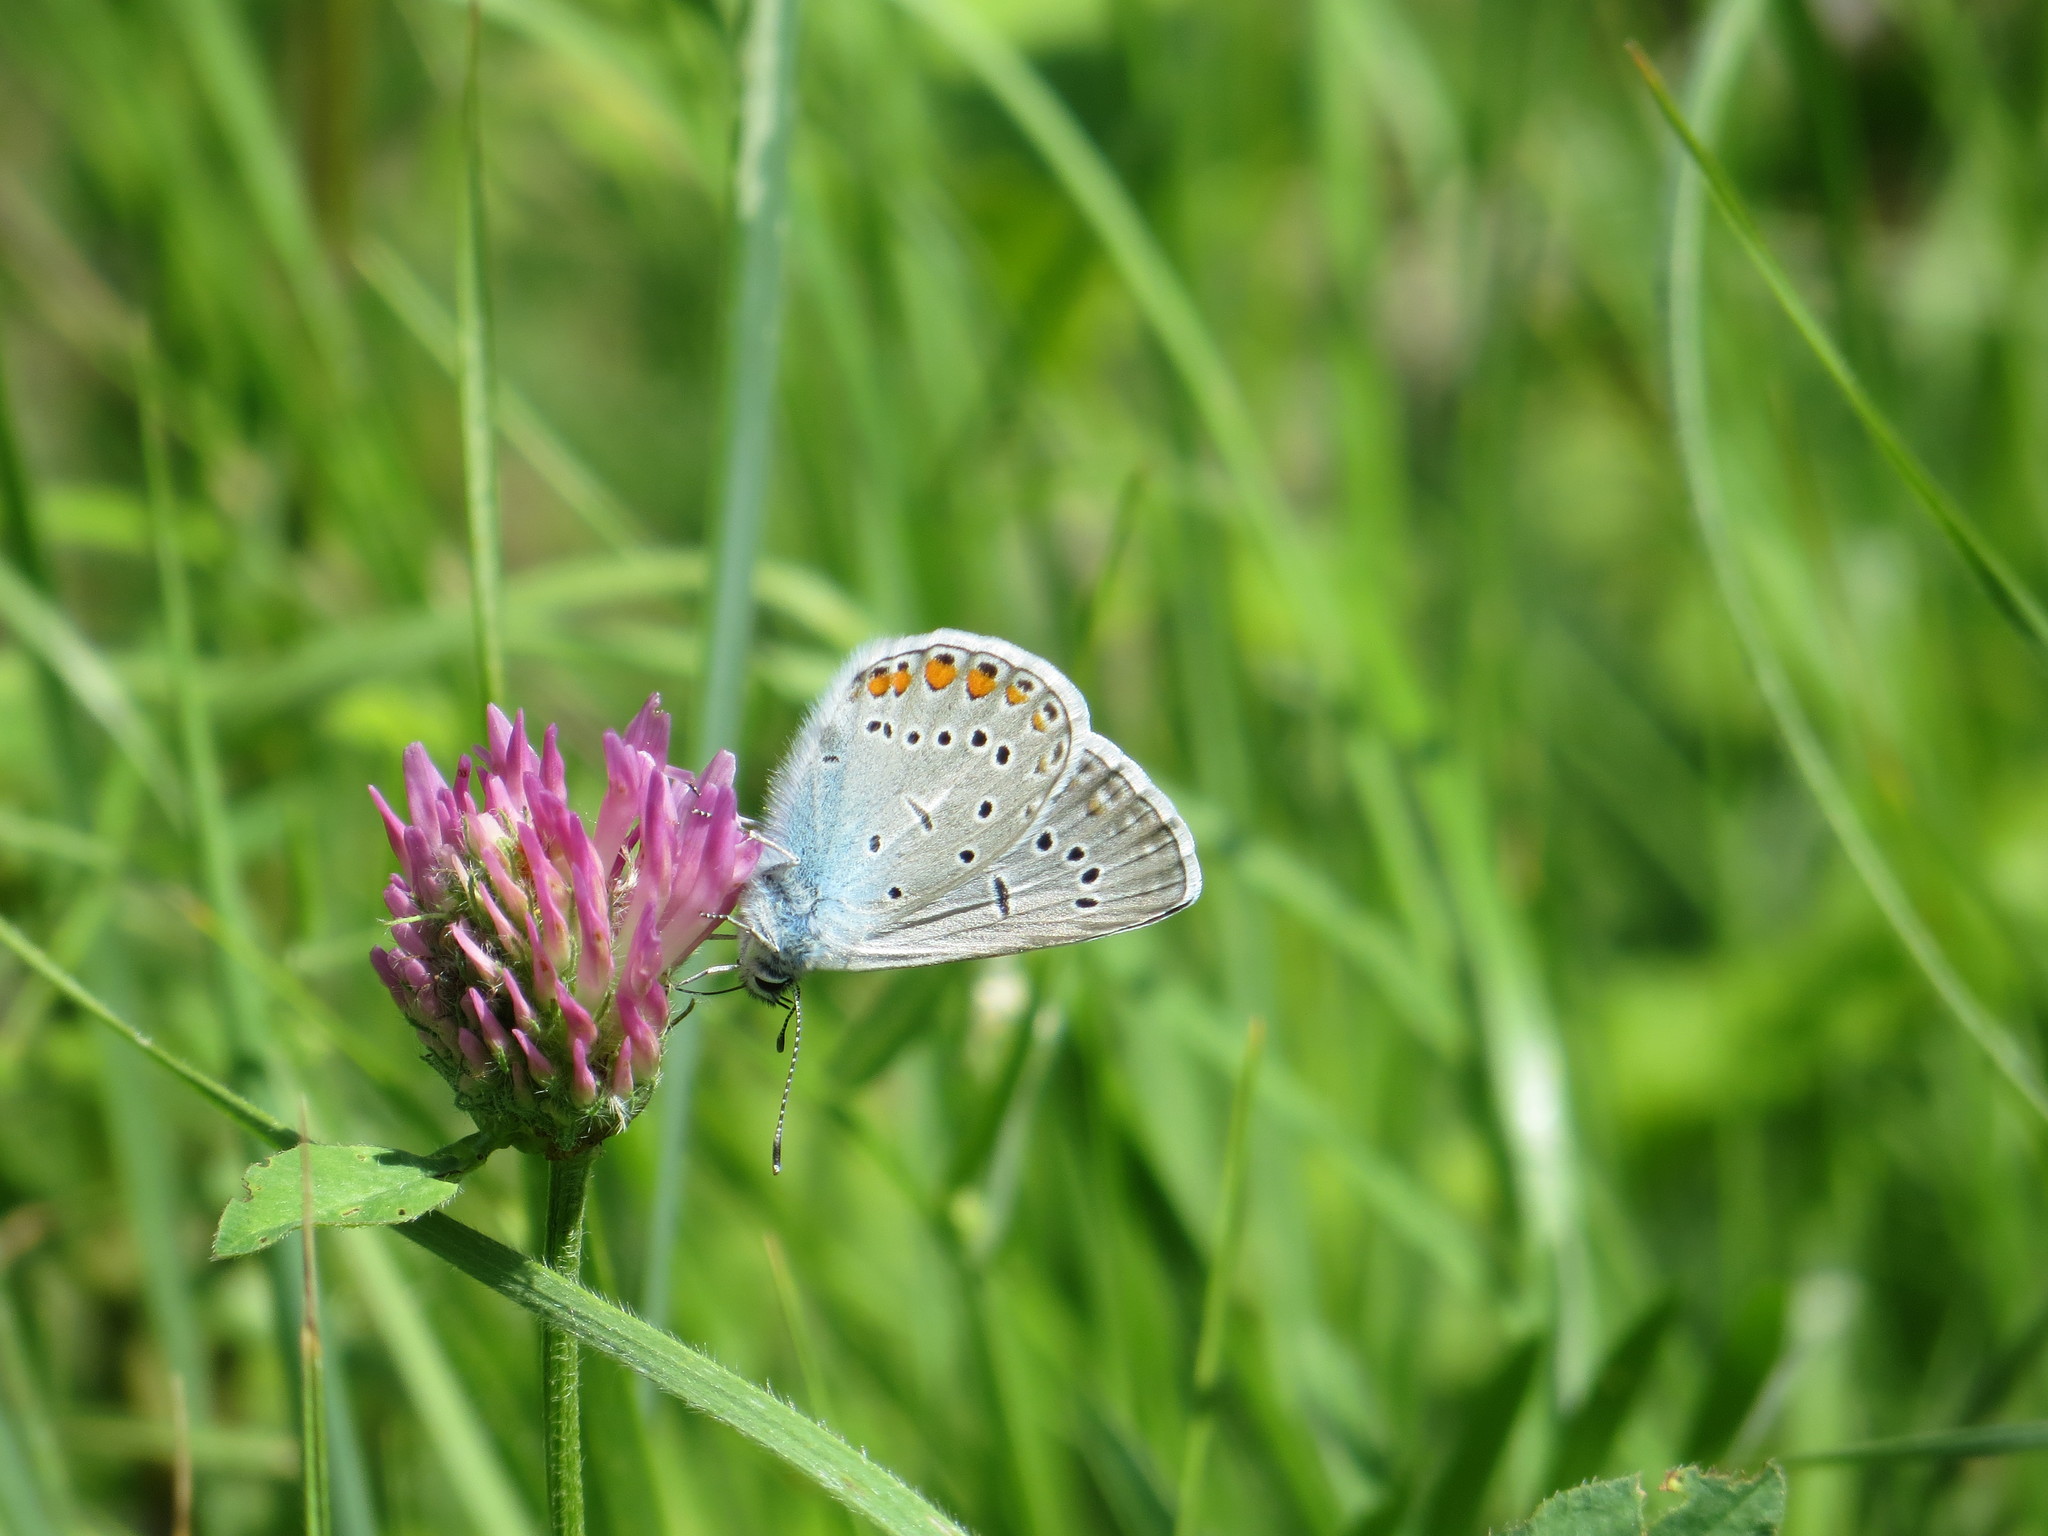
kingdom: Animalia
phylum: Arthropoda
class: Insecta
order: Lepidoptera
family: Lycaenidae
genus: Plebejus
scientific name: Plebejus amanda
